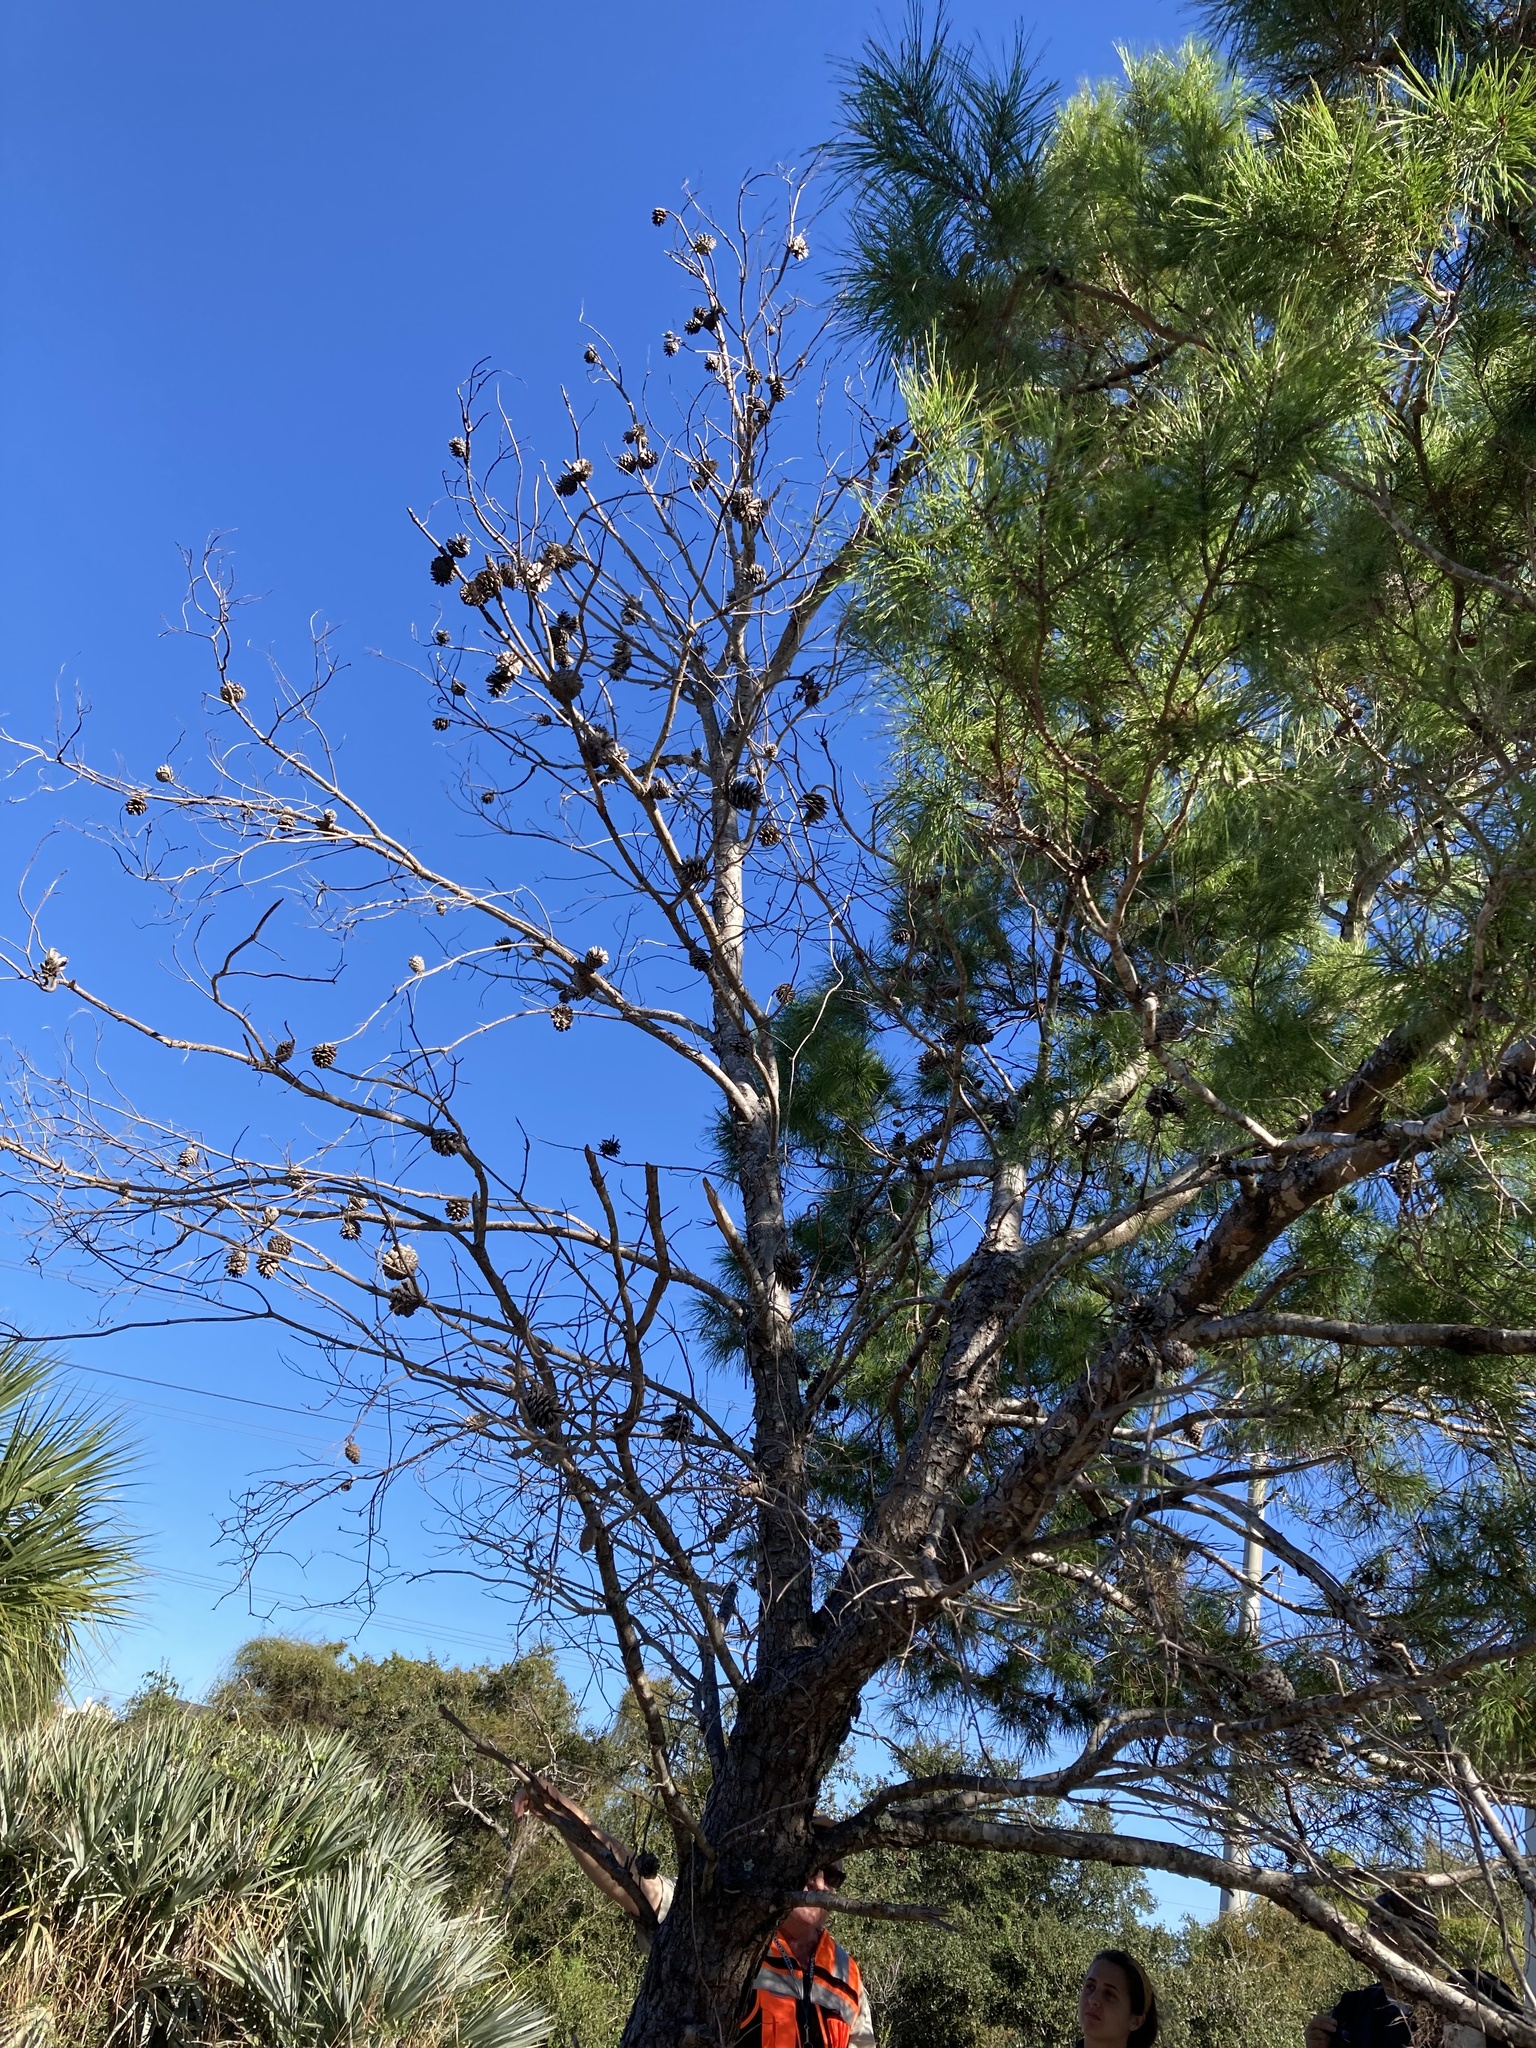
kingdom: Plantae
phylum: Tracheophyta
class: Pinopsida
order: Pinales
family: Pinaceae
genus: Pinus
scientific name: Pinus clausa
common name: Sand pine
